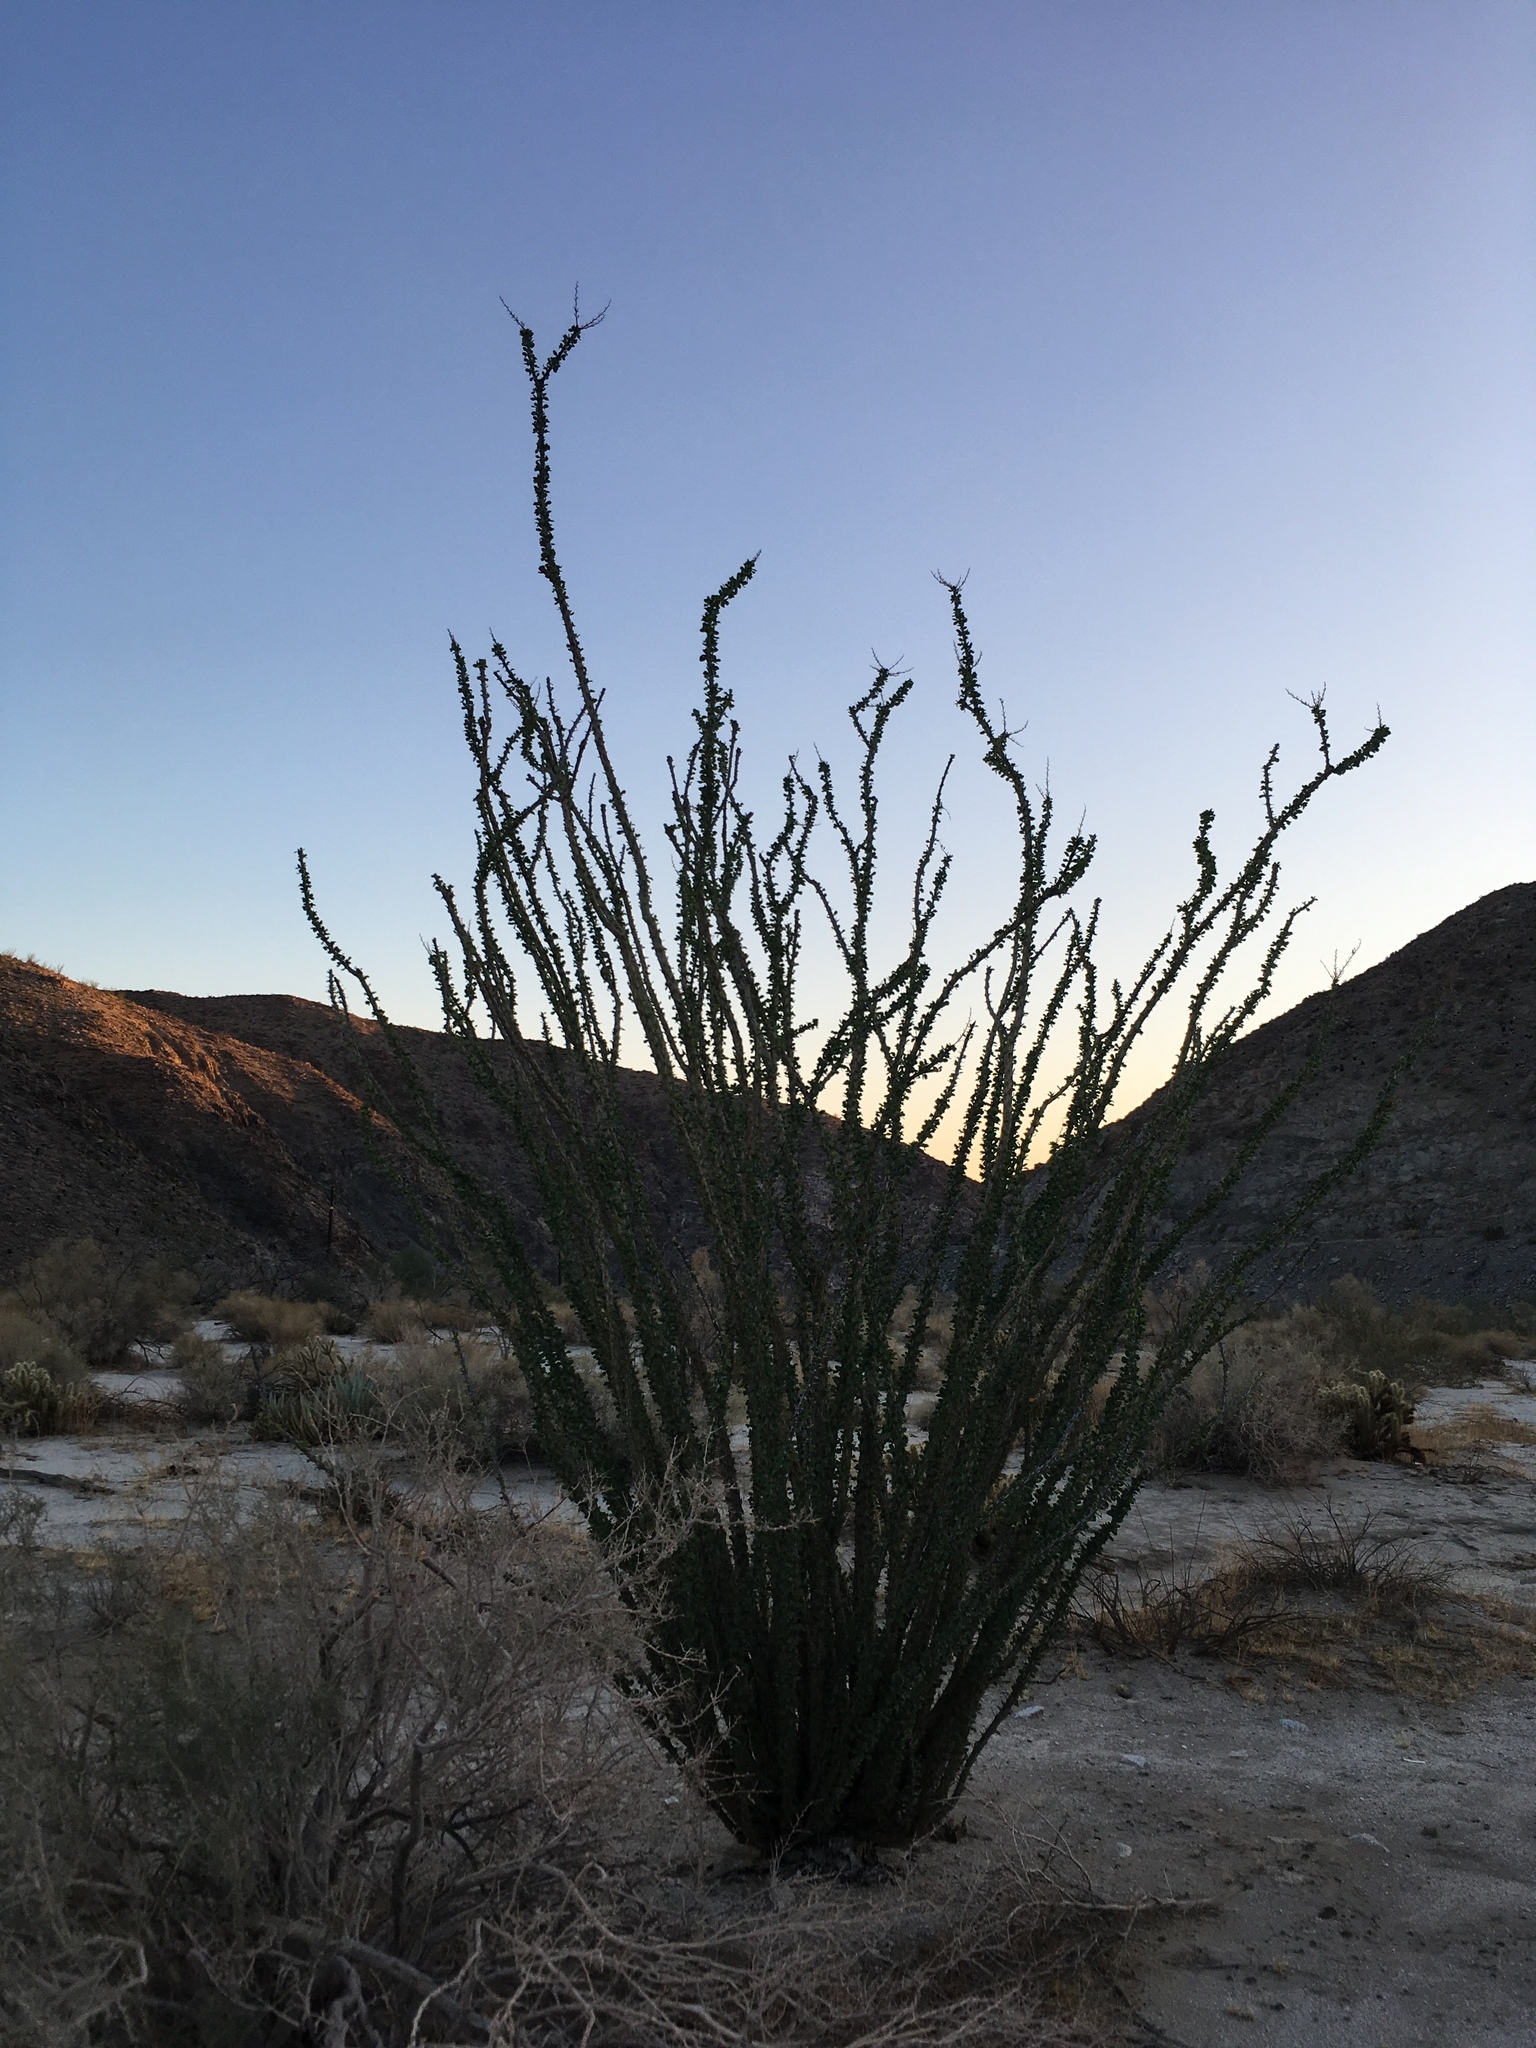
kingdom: Plantae
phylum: Tracheophyta
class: Magnoliopsida
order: Ericales
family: Fouquieriaceae
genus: Fouquieria
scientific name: Fouquieria splendens
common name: Vine-cactus
